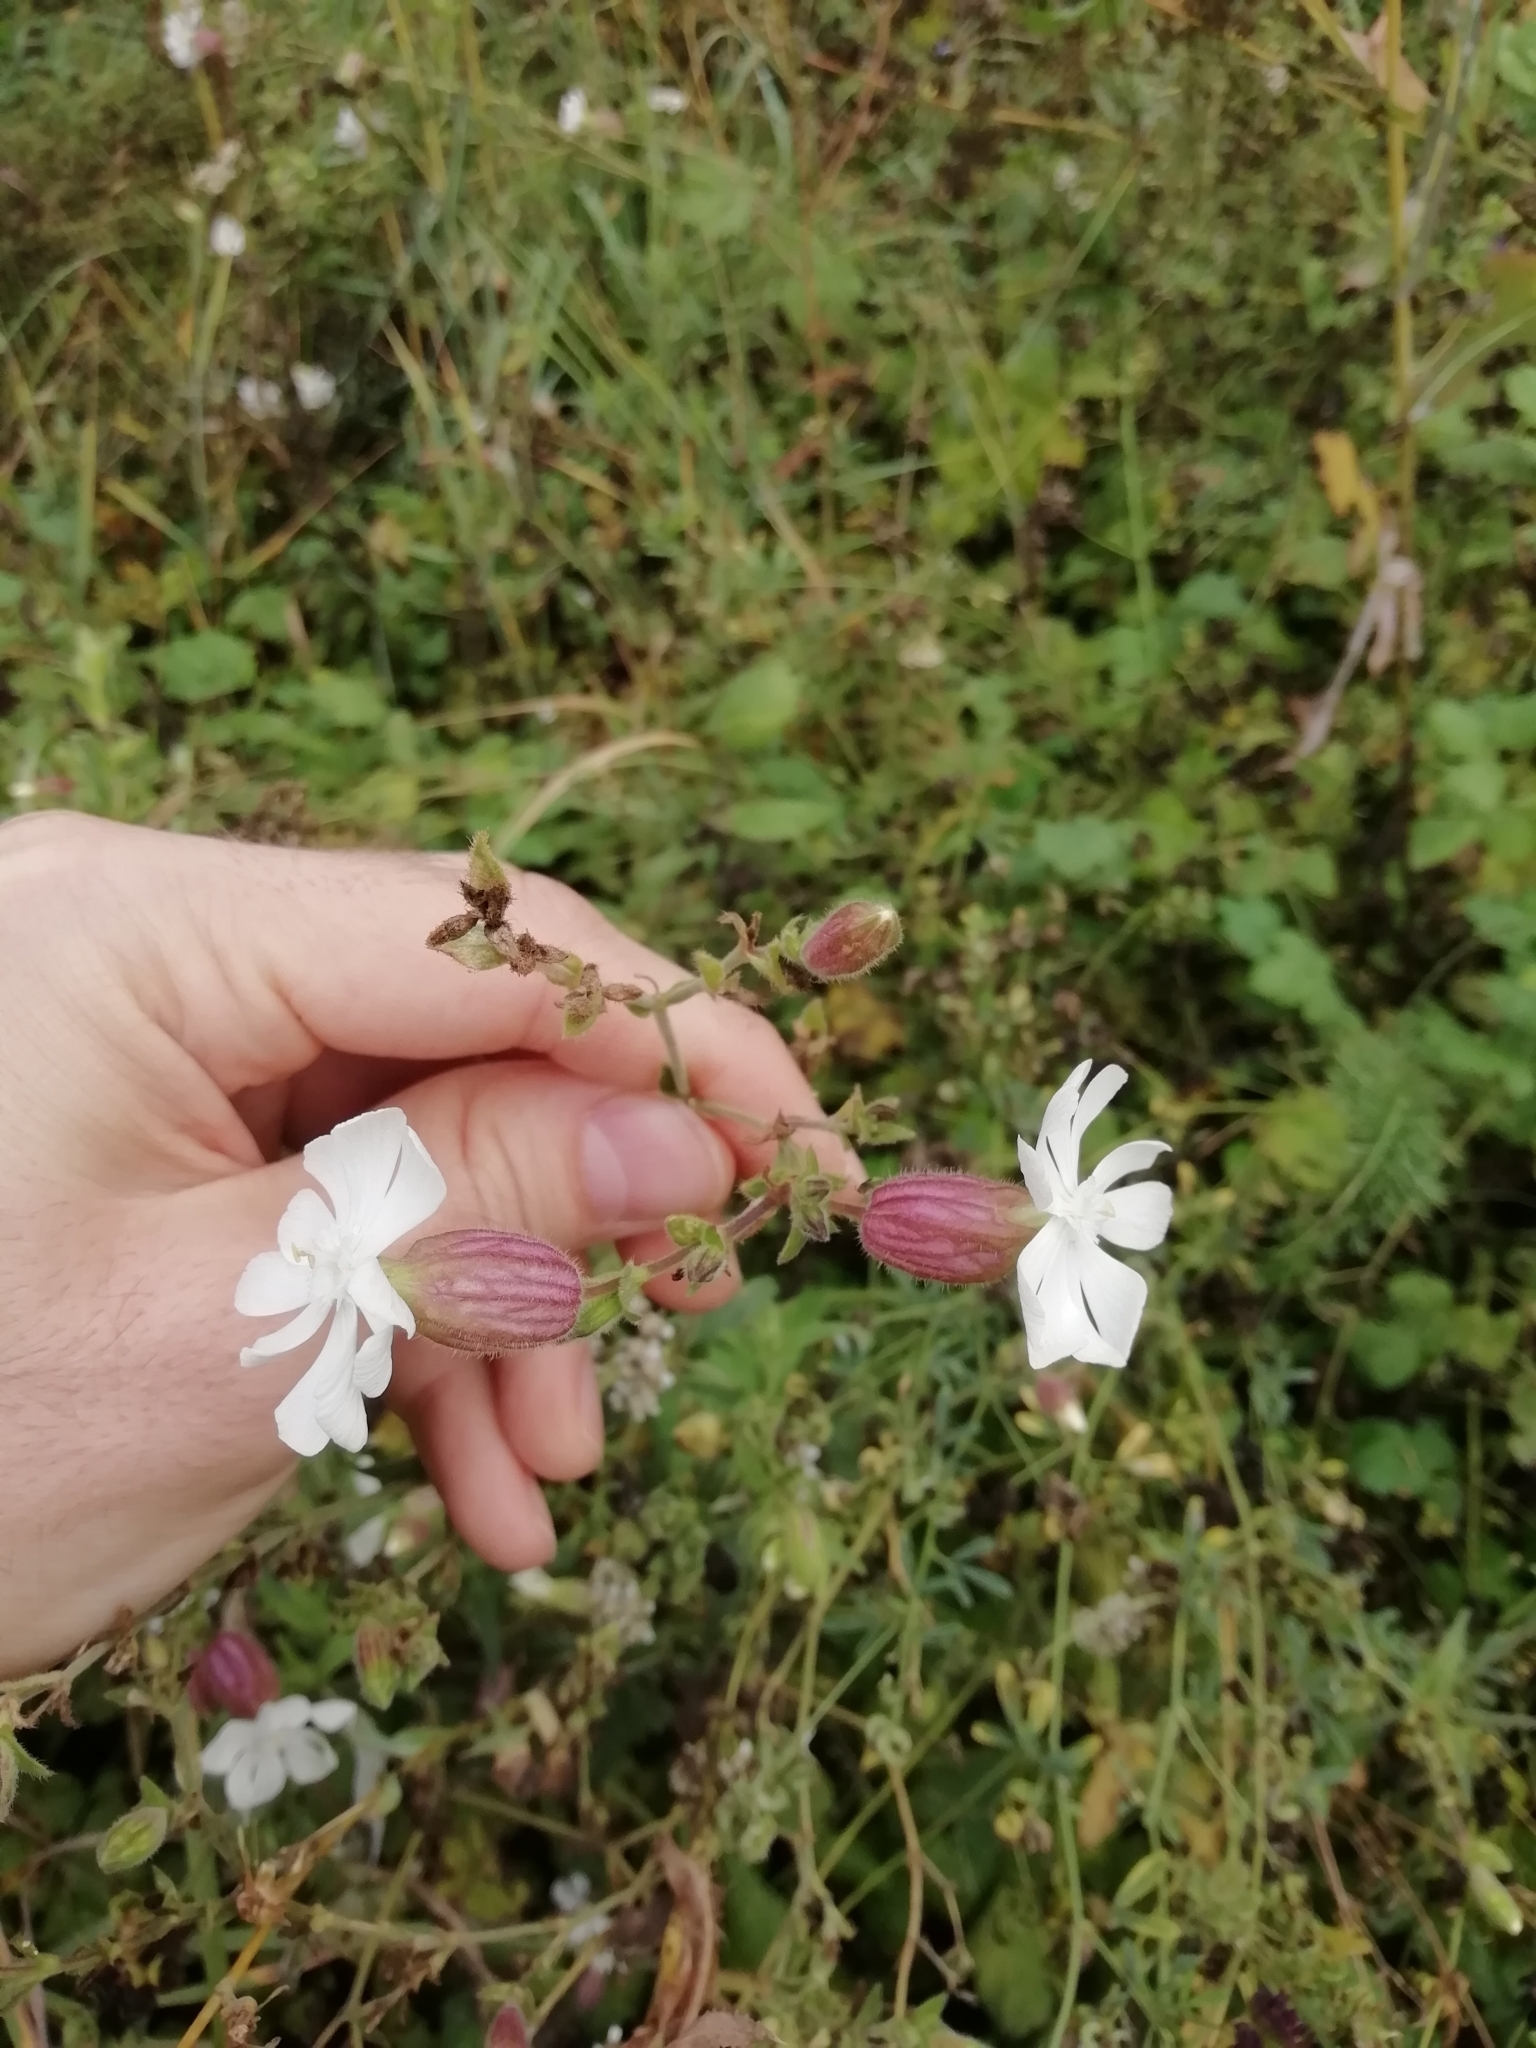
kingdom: Plantae
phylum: Tracheophyta
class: Magnoliopsida
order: Caryophyllales
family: Caryophyllaceae
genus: Silene
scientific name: Silene latifolia
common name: White campion
